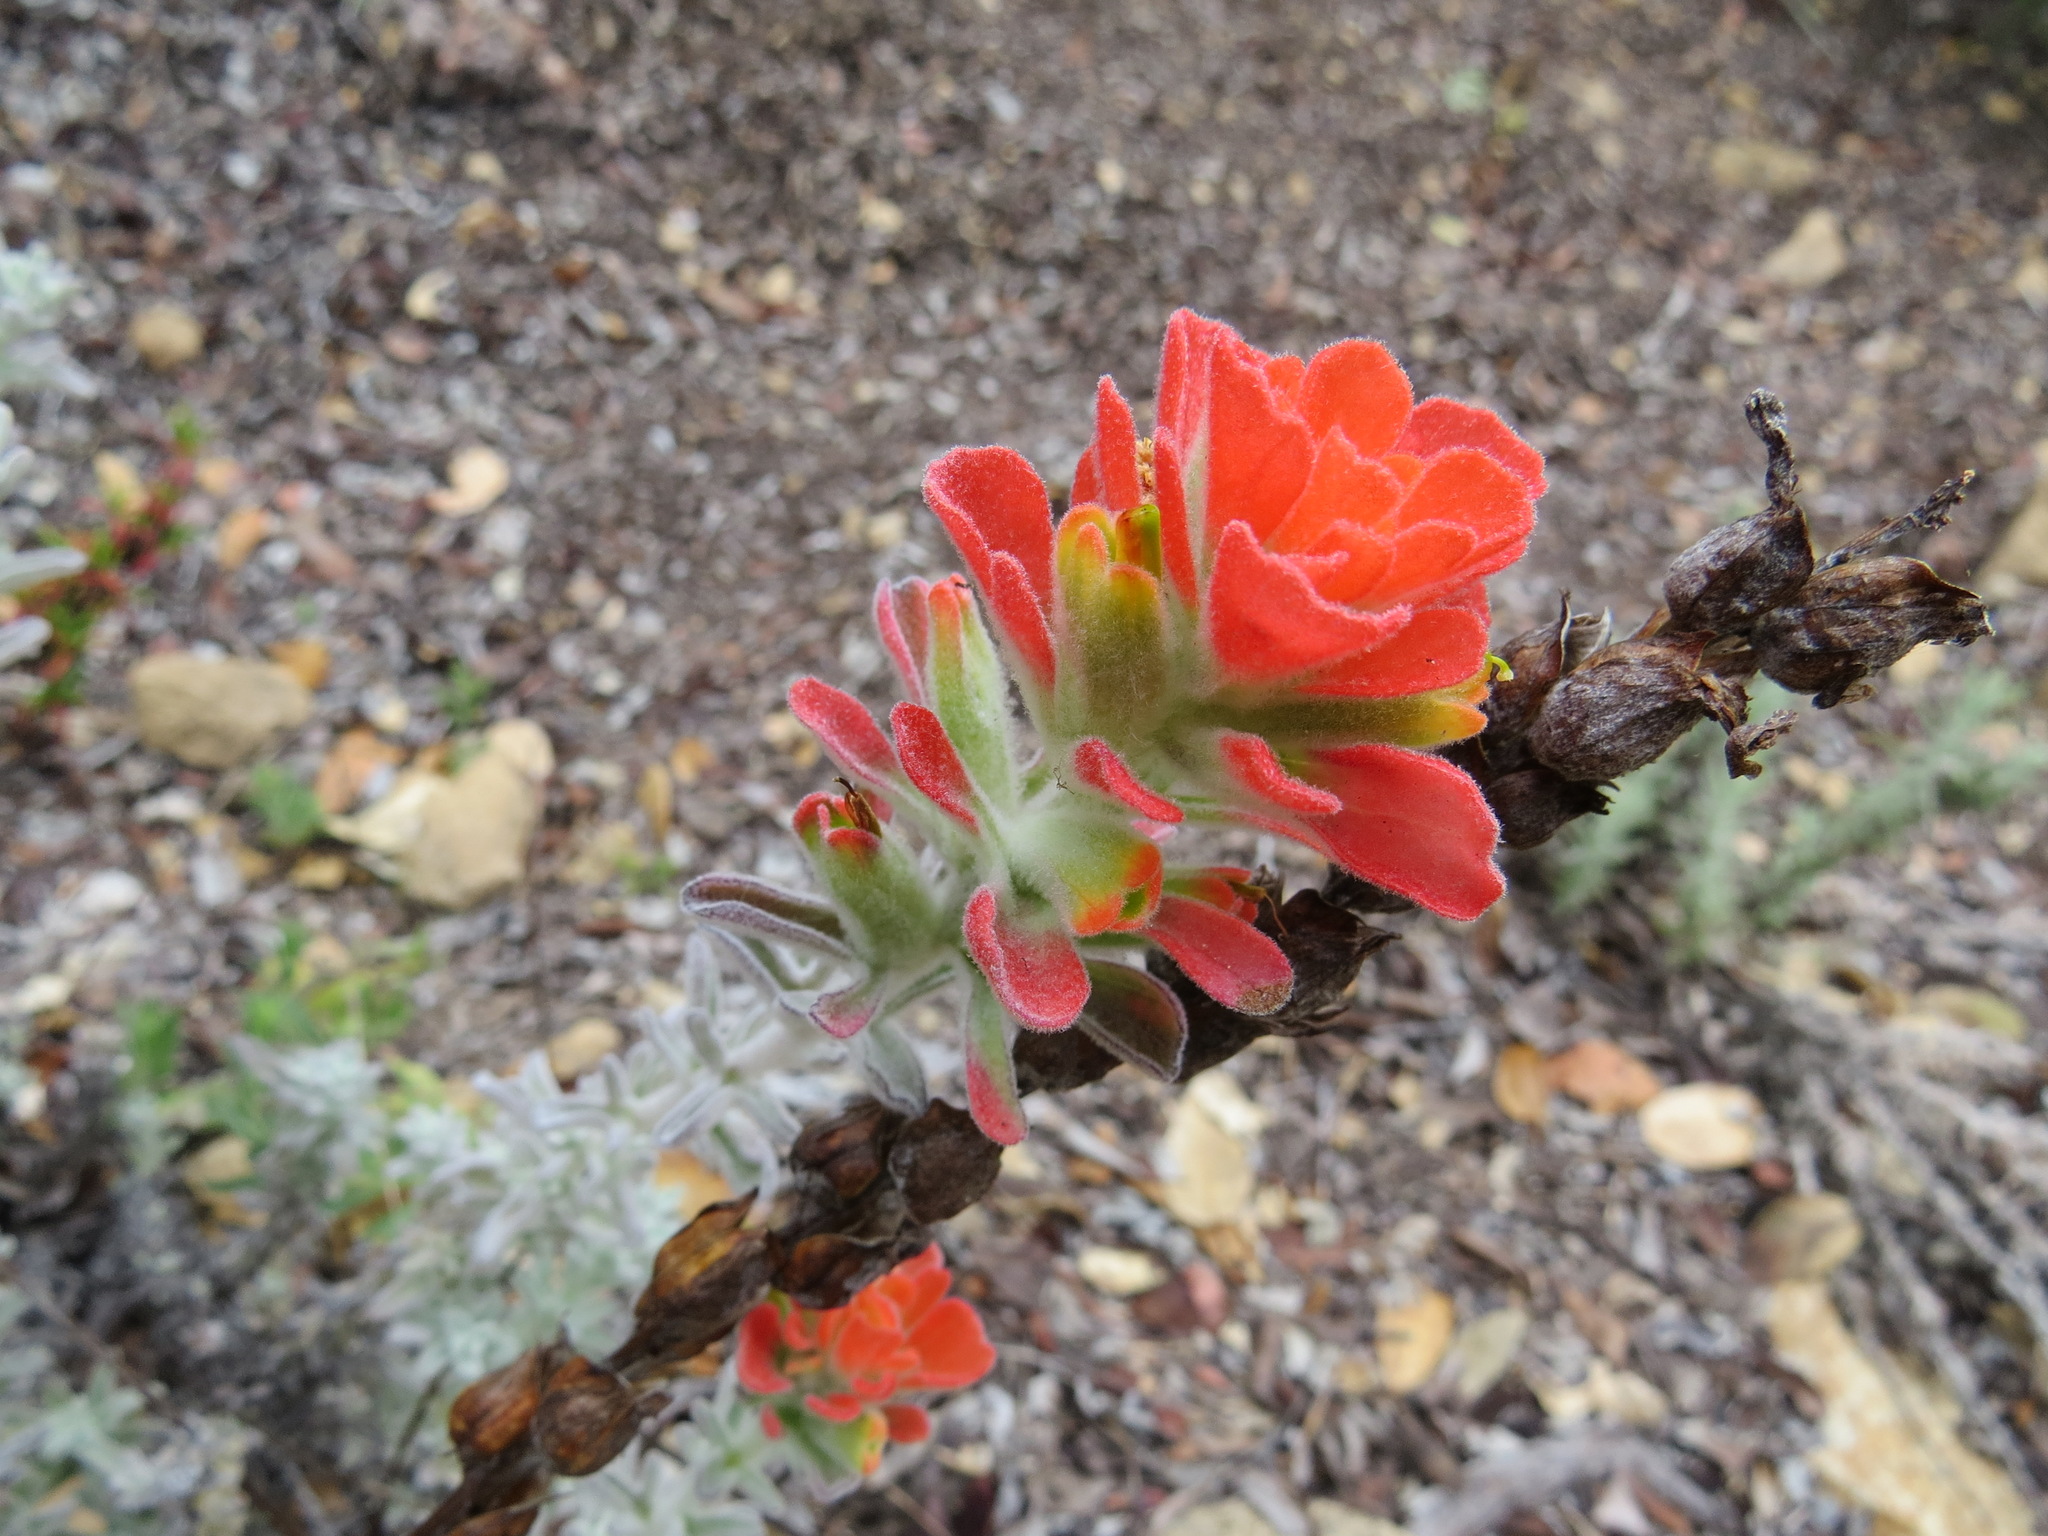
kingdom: Plantae
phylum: Tracheophyta
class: Magnoliopsida
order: Lamiales
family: Orobanchaceae
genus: Castilleja
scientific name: Castilleja foliolosa
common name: Woolly indian paintbrush
